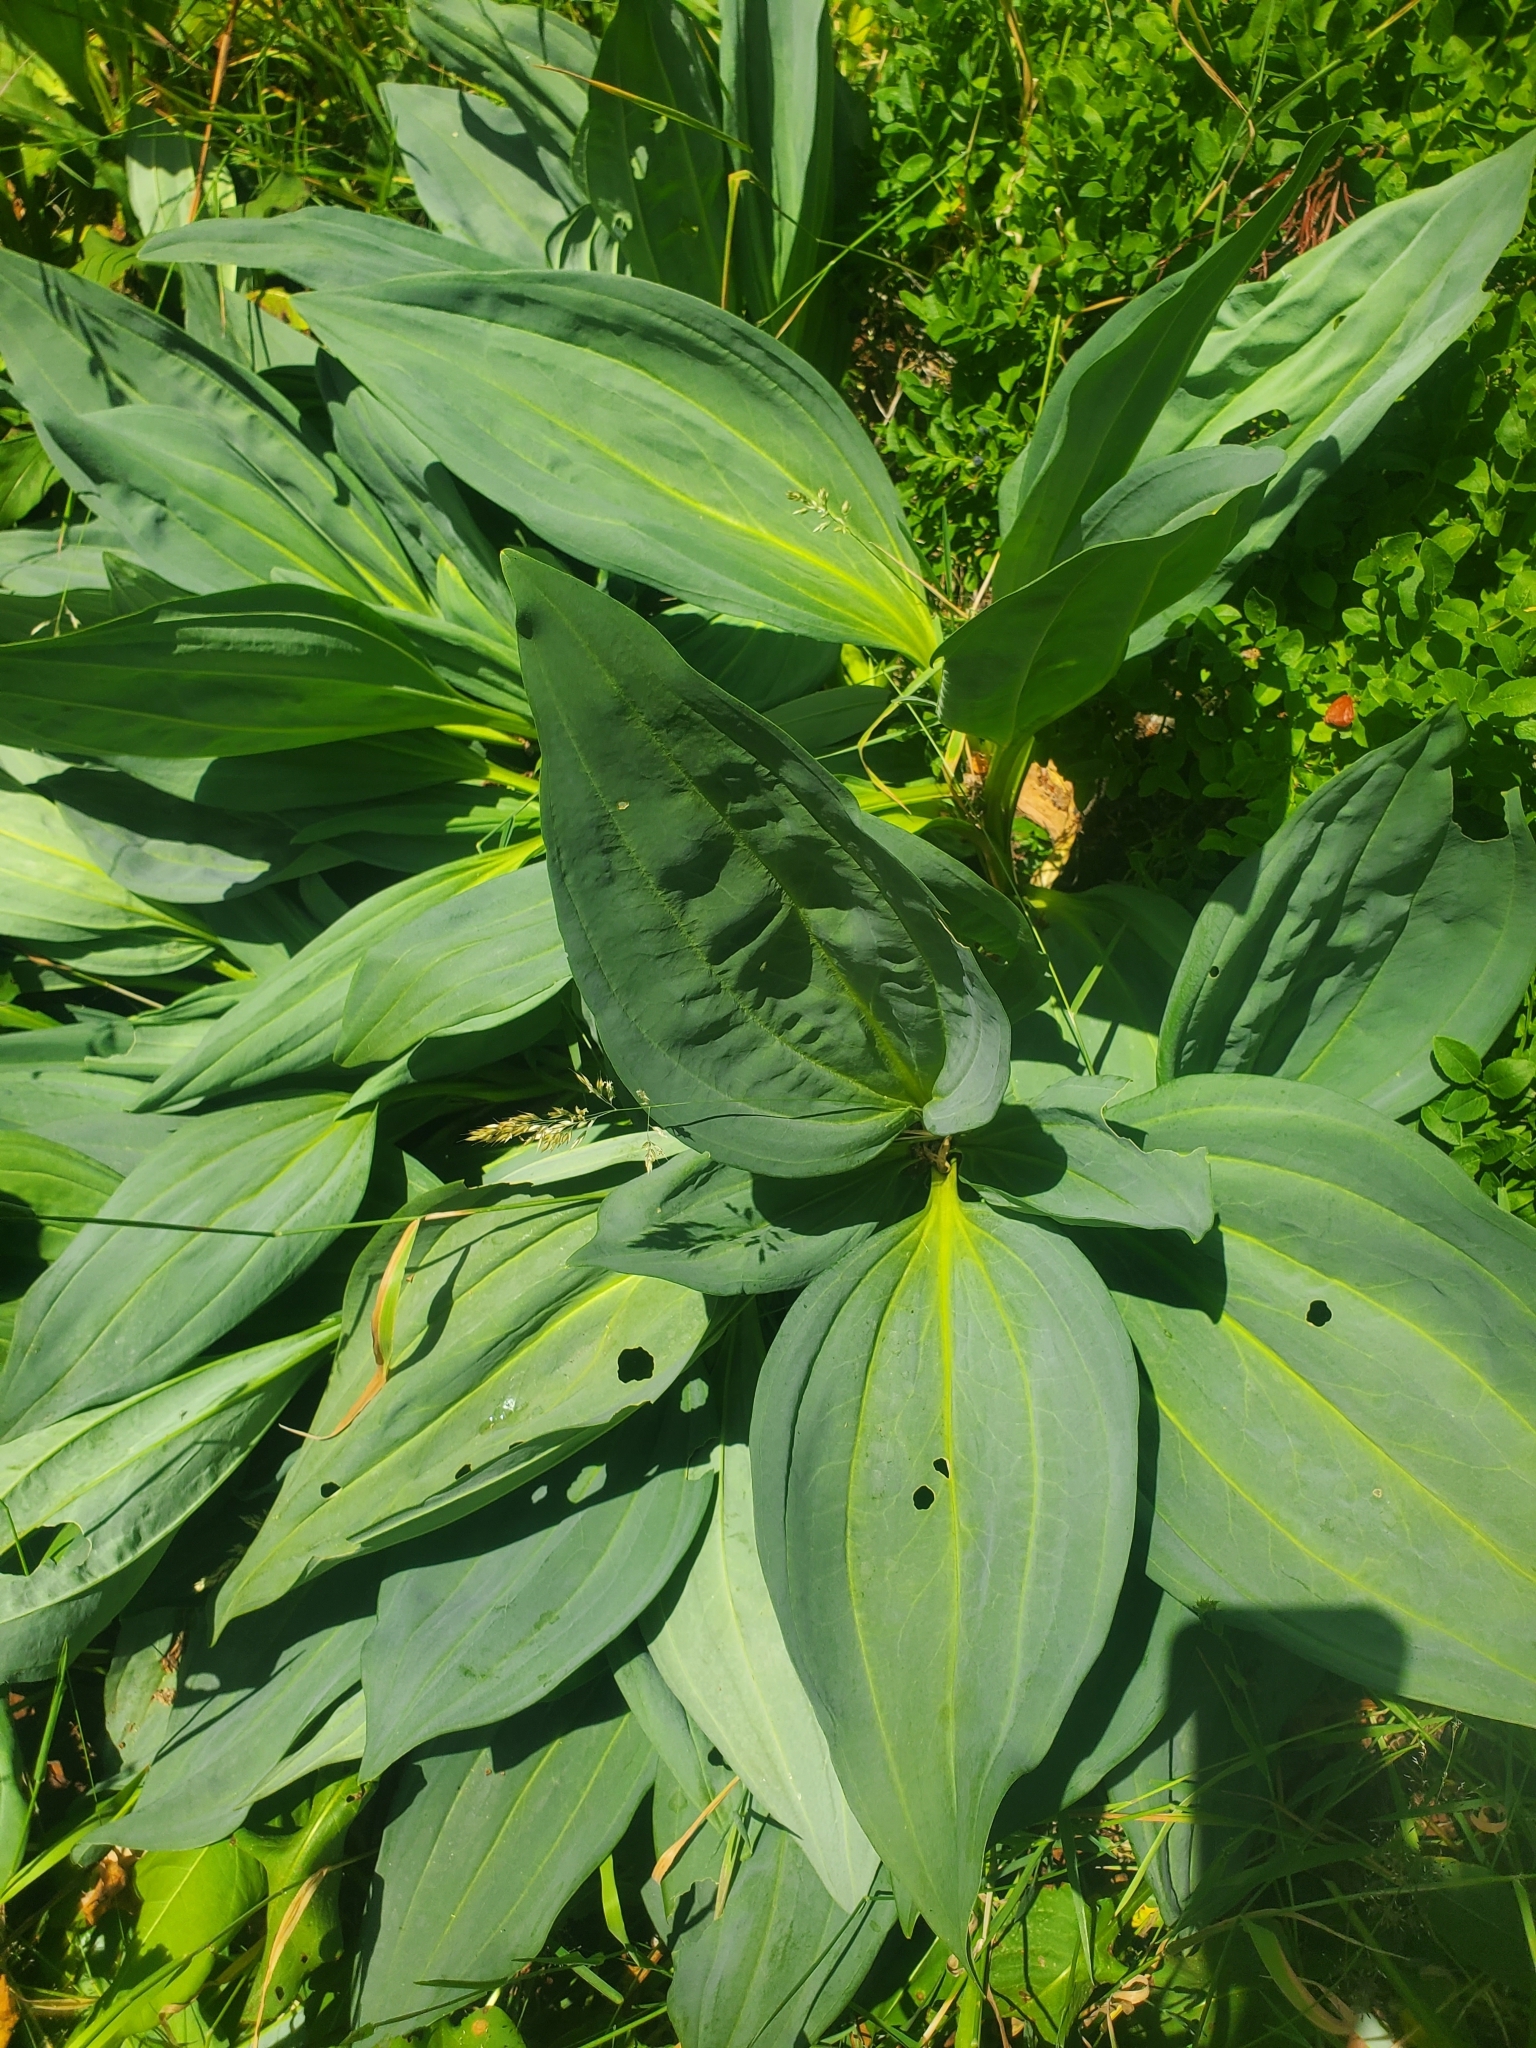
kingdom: Plantae
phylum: Tracheophyta
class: Magnoliopsida
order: Gentianales
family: Gentianaceae
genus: Gentiana
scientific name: Gentiana lutea
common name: Great yellow gentian
